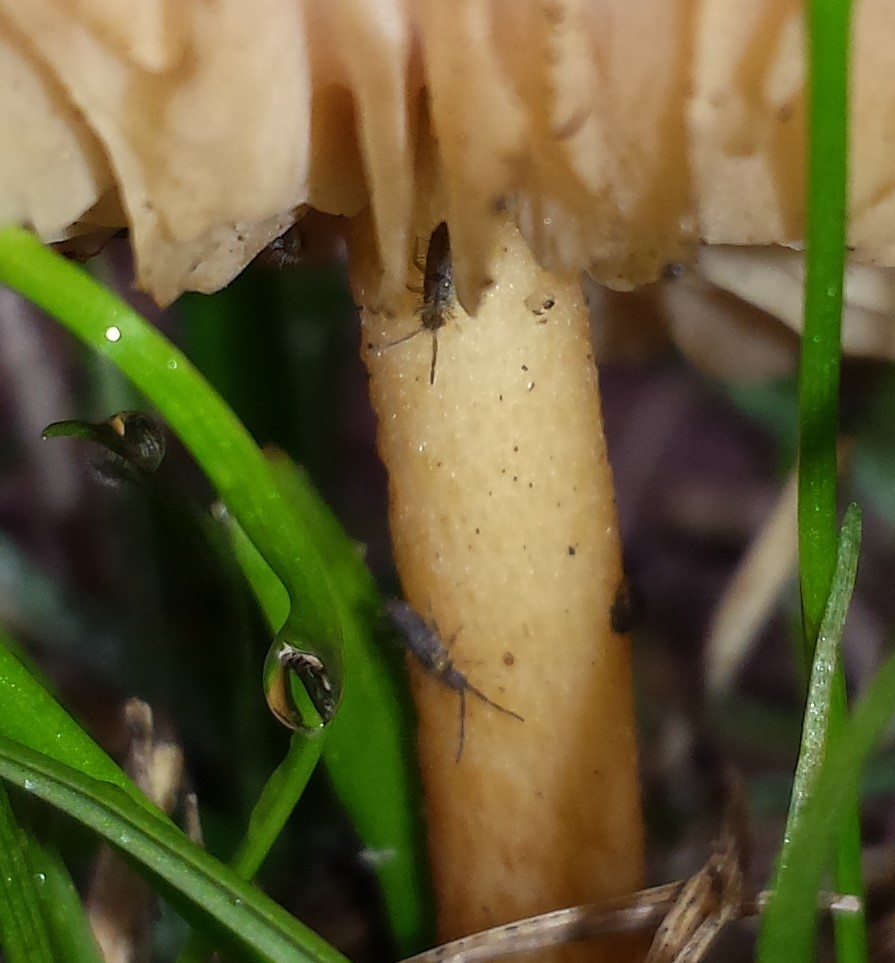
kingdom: Animalia
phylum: Arthropoda
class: Collembola
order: Entomobryomorpha
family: Entomobryidae
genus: Entomobrya
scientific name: Entomobrya unostrigata
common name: Springtail
